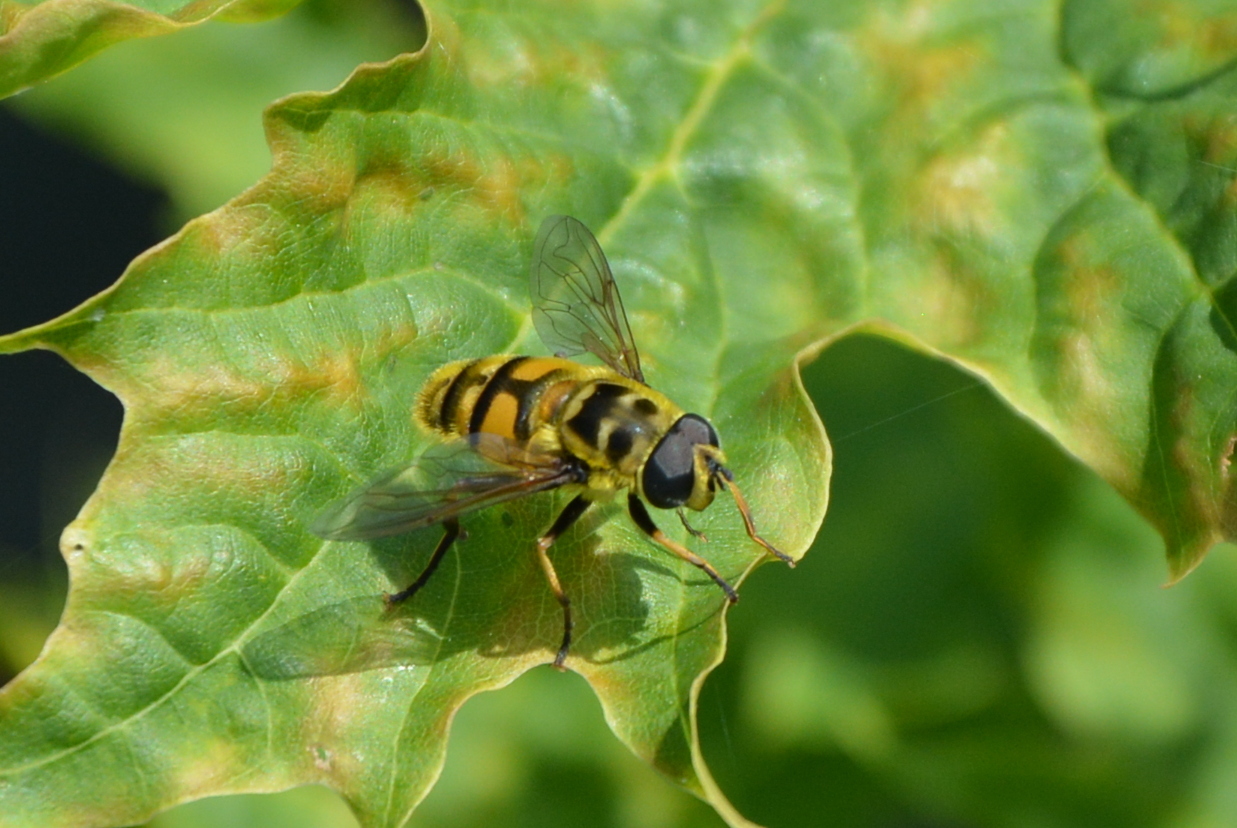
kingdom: Animalia
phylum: Arthropoda
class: Insecta
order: Diptera
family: Syrphidae
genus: Myathropa
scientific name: Myathropa florea
